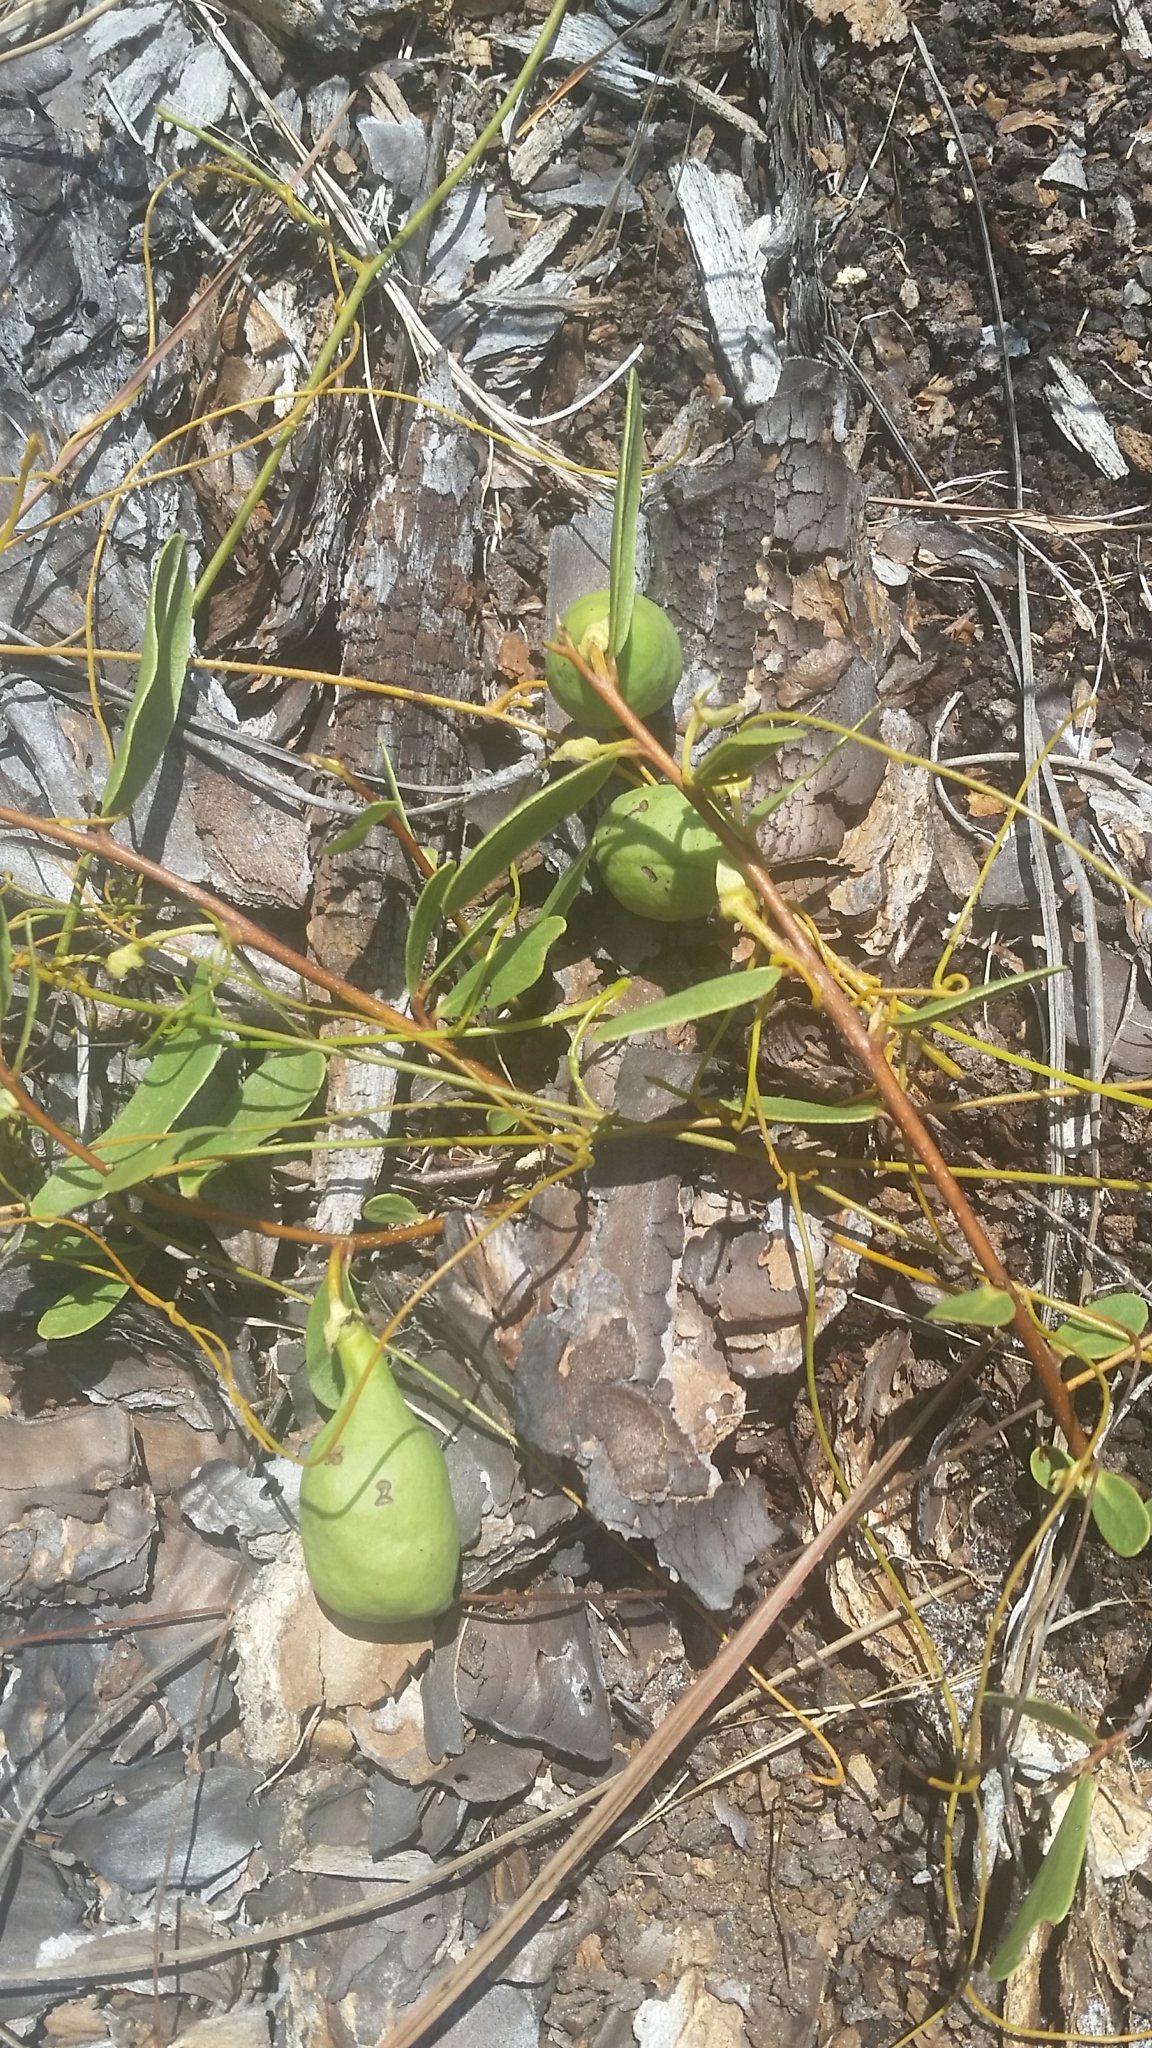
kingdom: Plantae
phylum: Tracheophyta
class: Magnoliopsida
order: Magnoliales
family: Annonaceae
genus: Asimina
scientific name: Asimina pulchella
